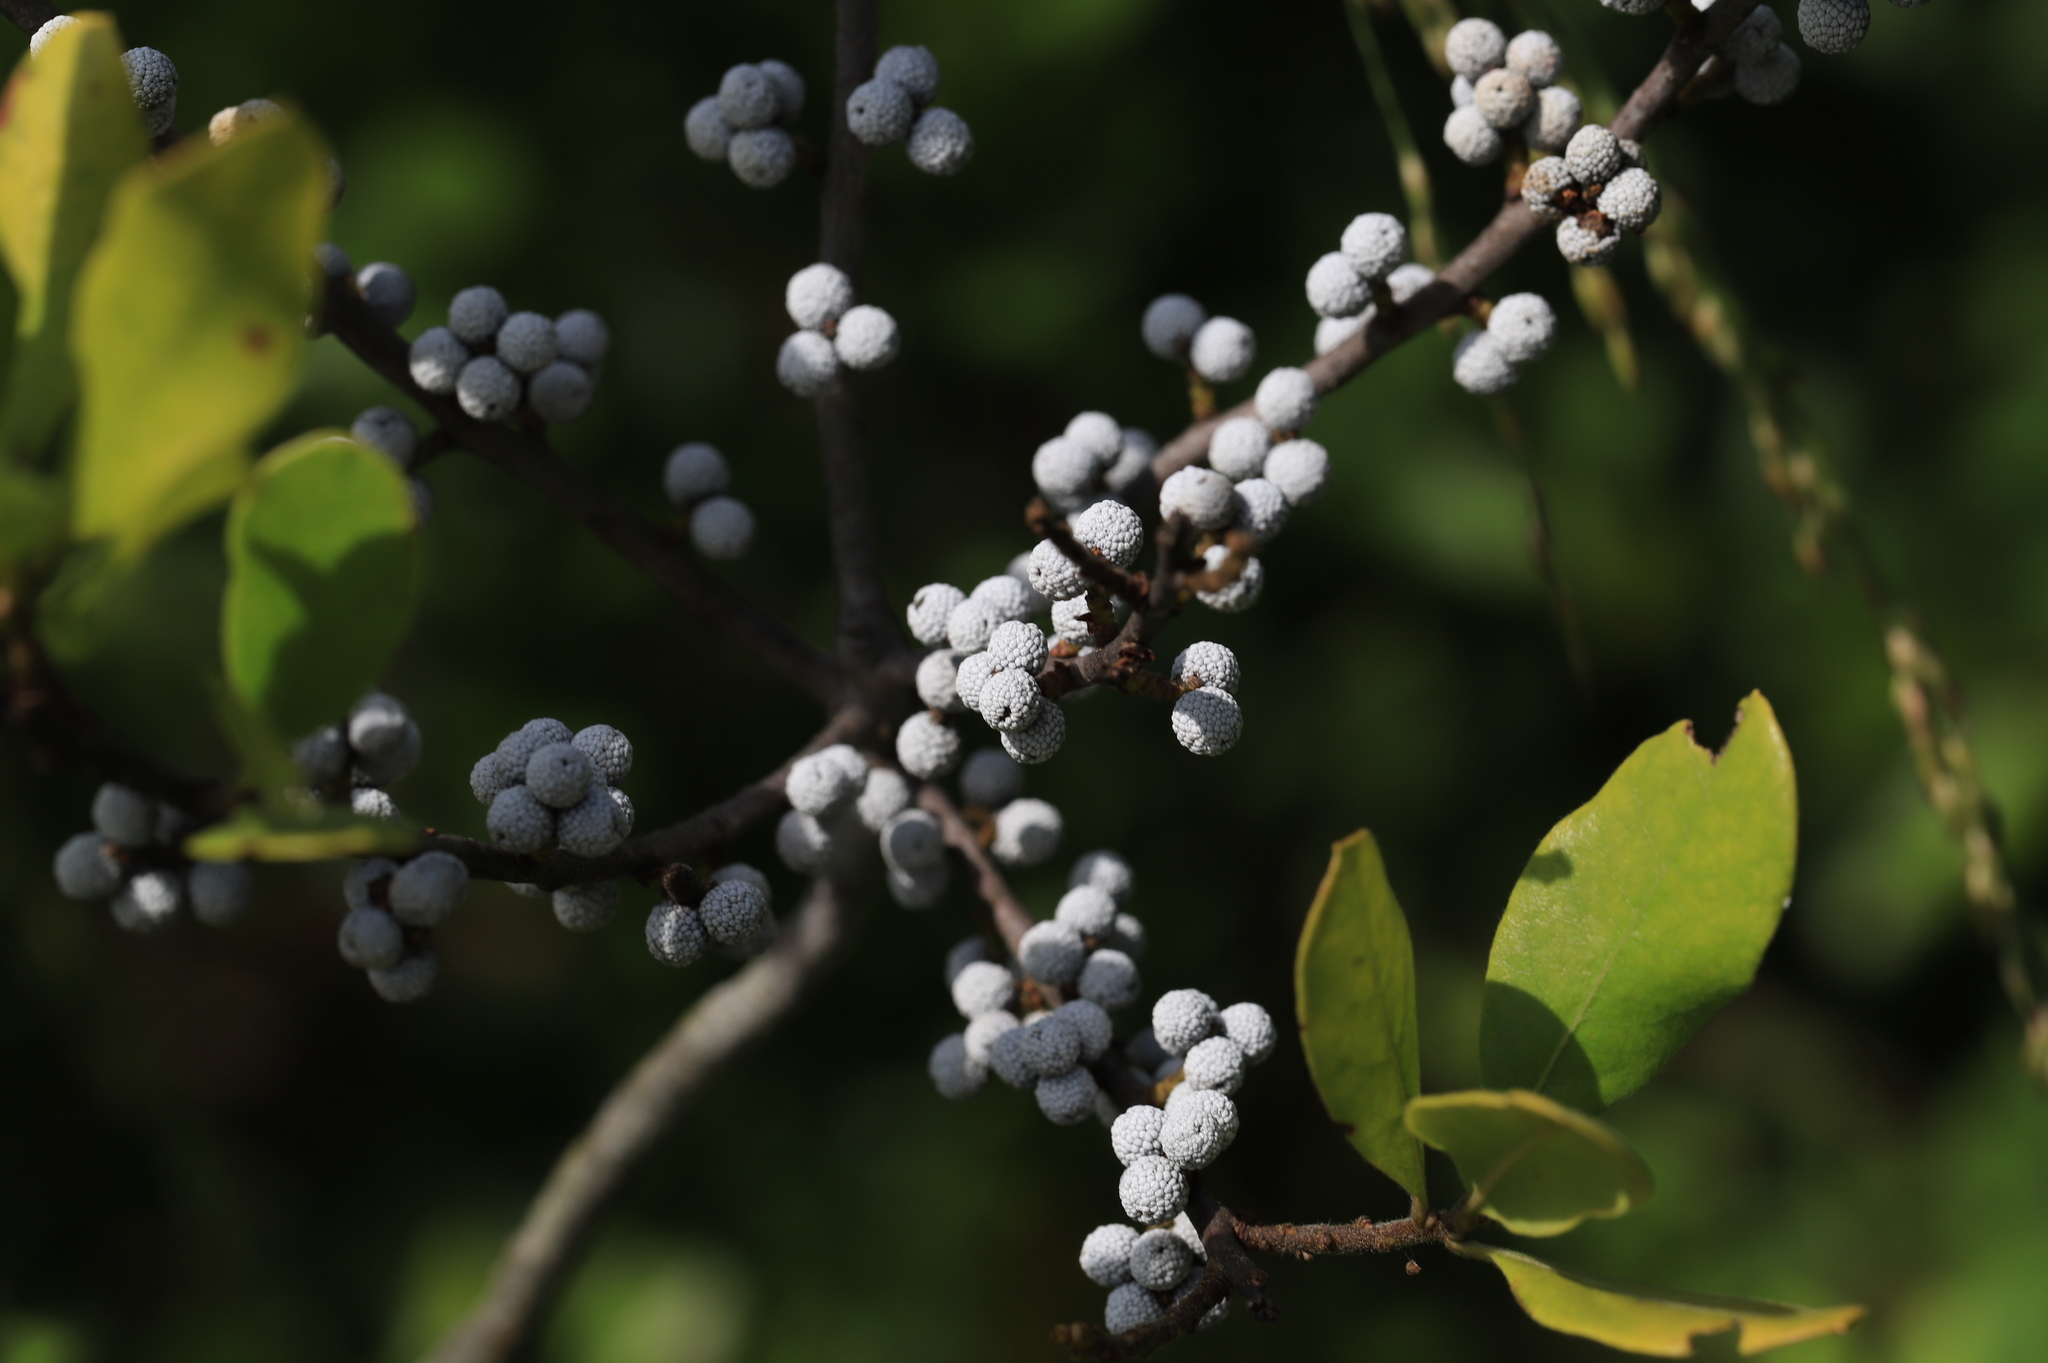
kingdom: Plantae
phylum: Tracheophyta
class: Magnoliopsida
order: Fagales
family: Myricaceae
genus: Morella
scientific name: Morella pensylvanica
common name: Northern bayberry
